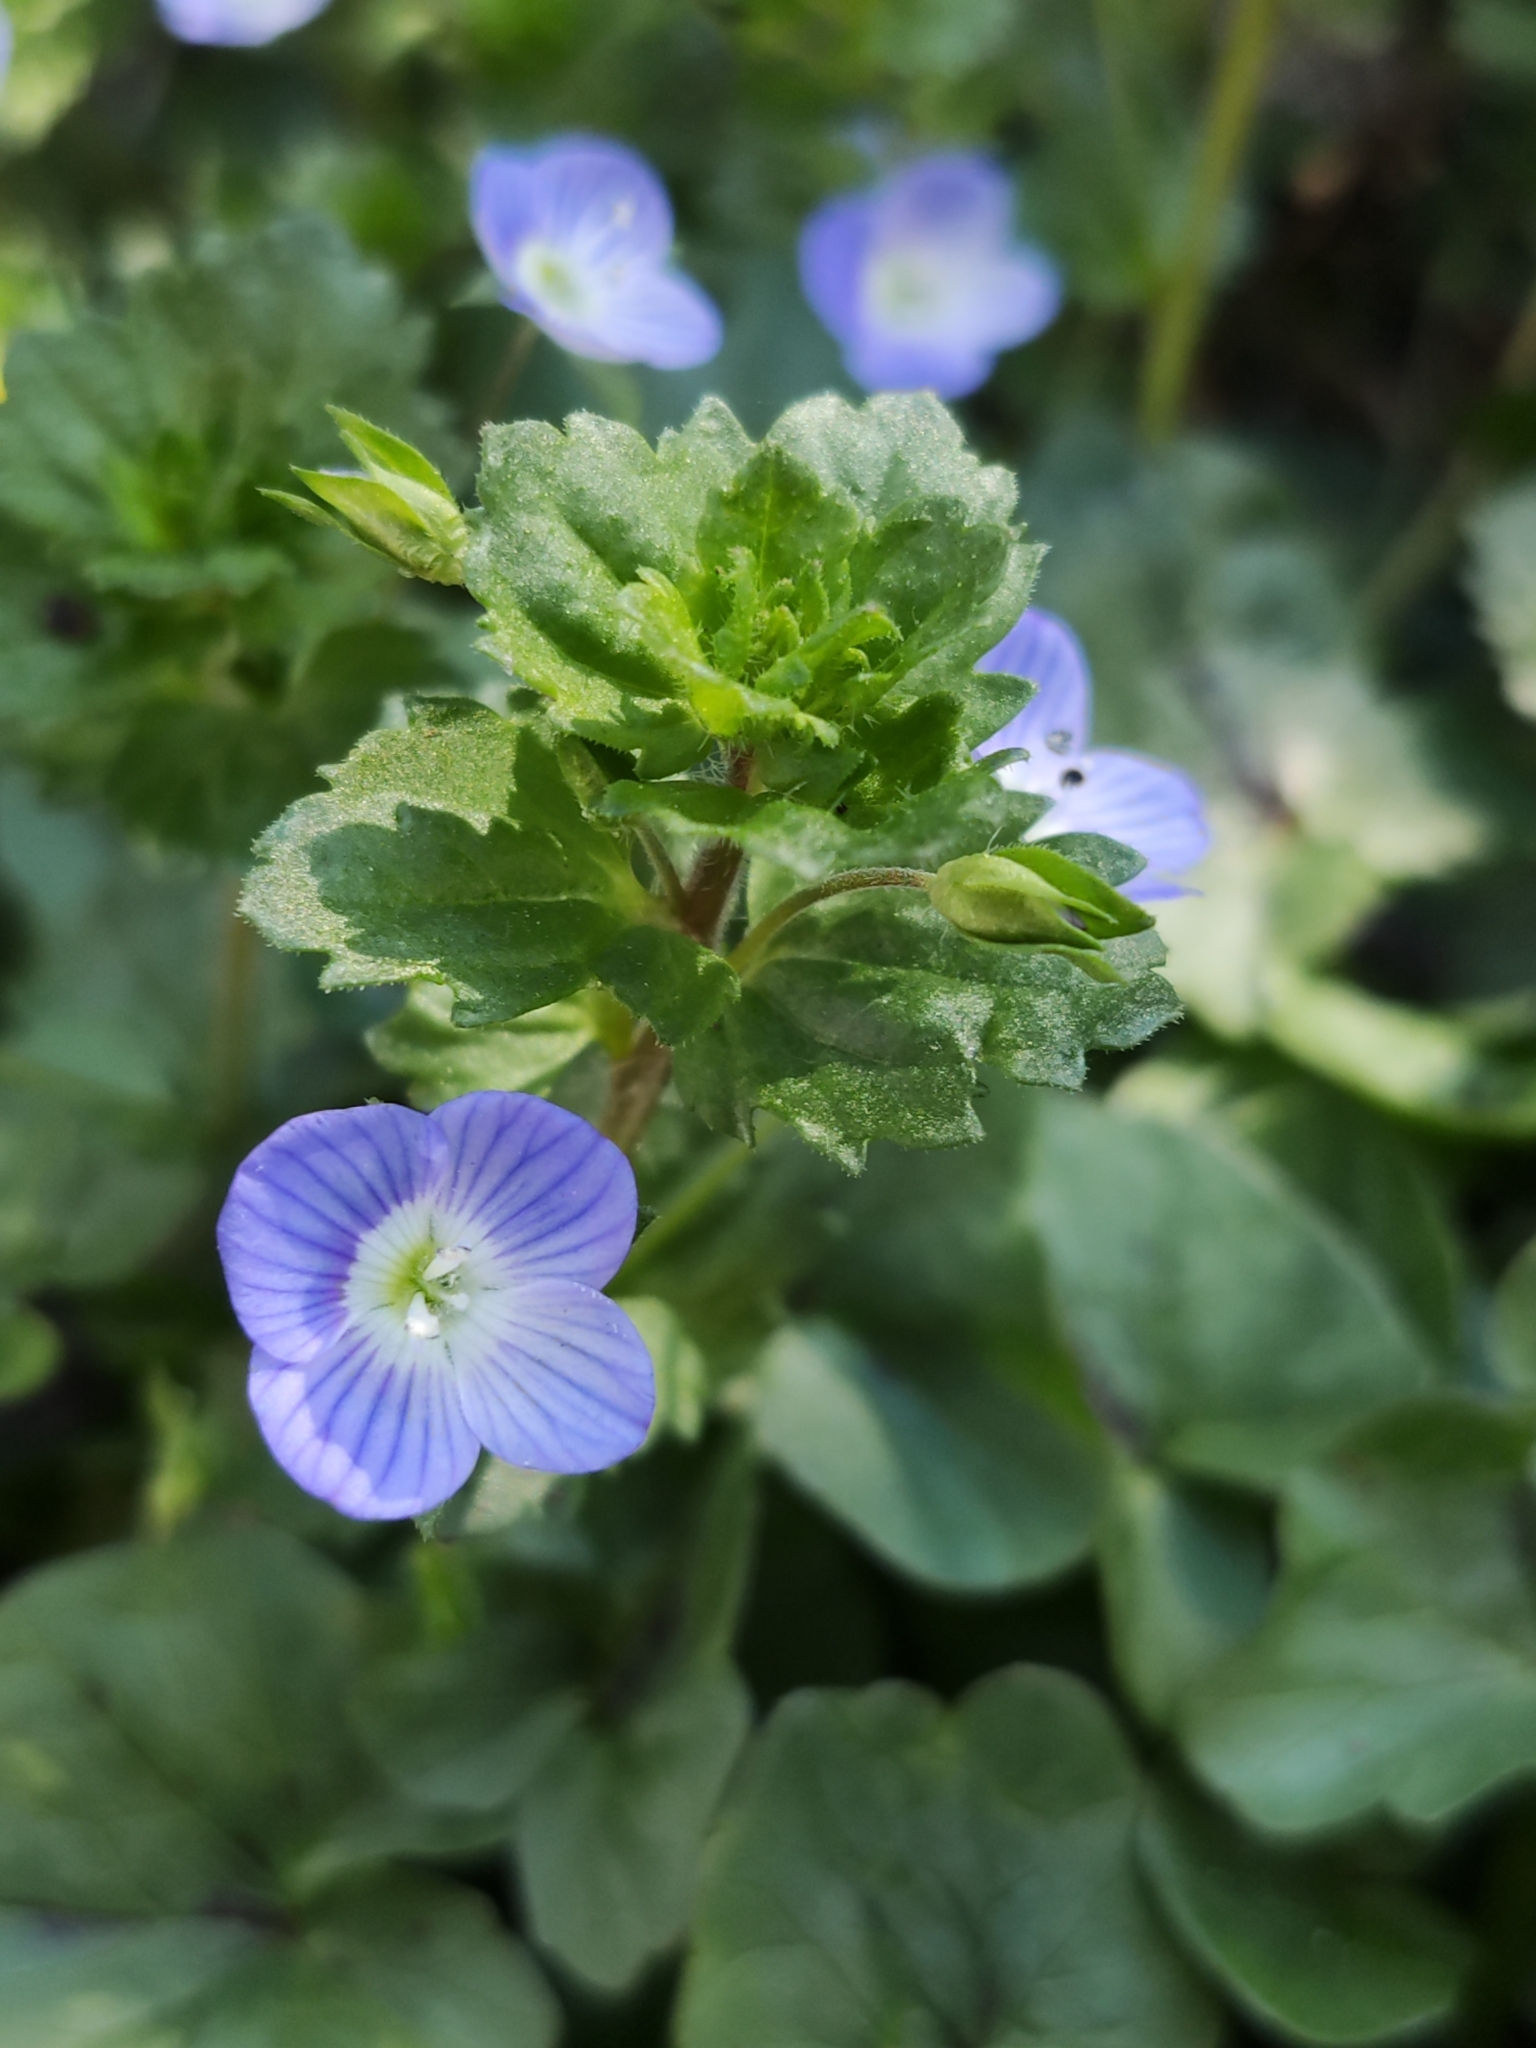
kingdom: Plantae
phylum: Tracheophyta
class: Magnoliopsida
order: Lamiales
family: Plantaginaceae
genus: Veronica
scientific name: Veronica persica
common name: Common field-speedwell
